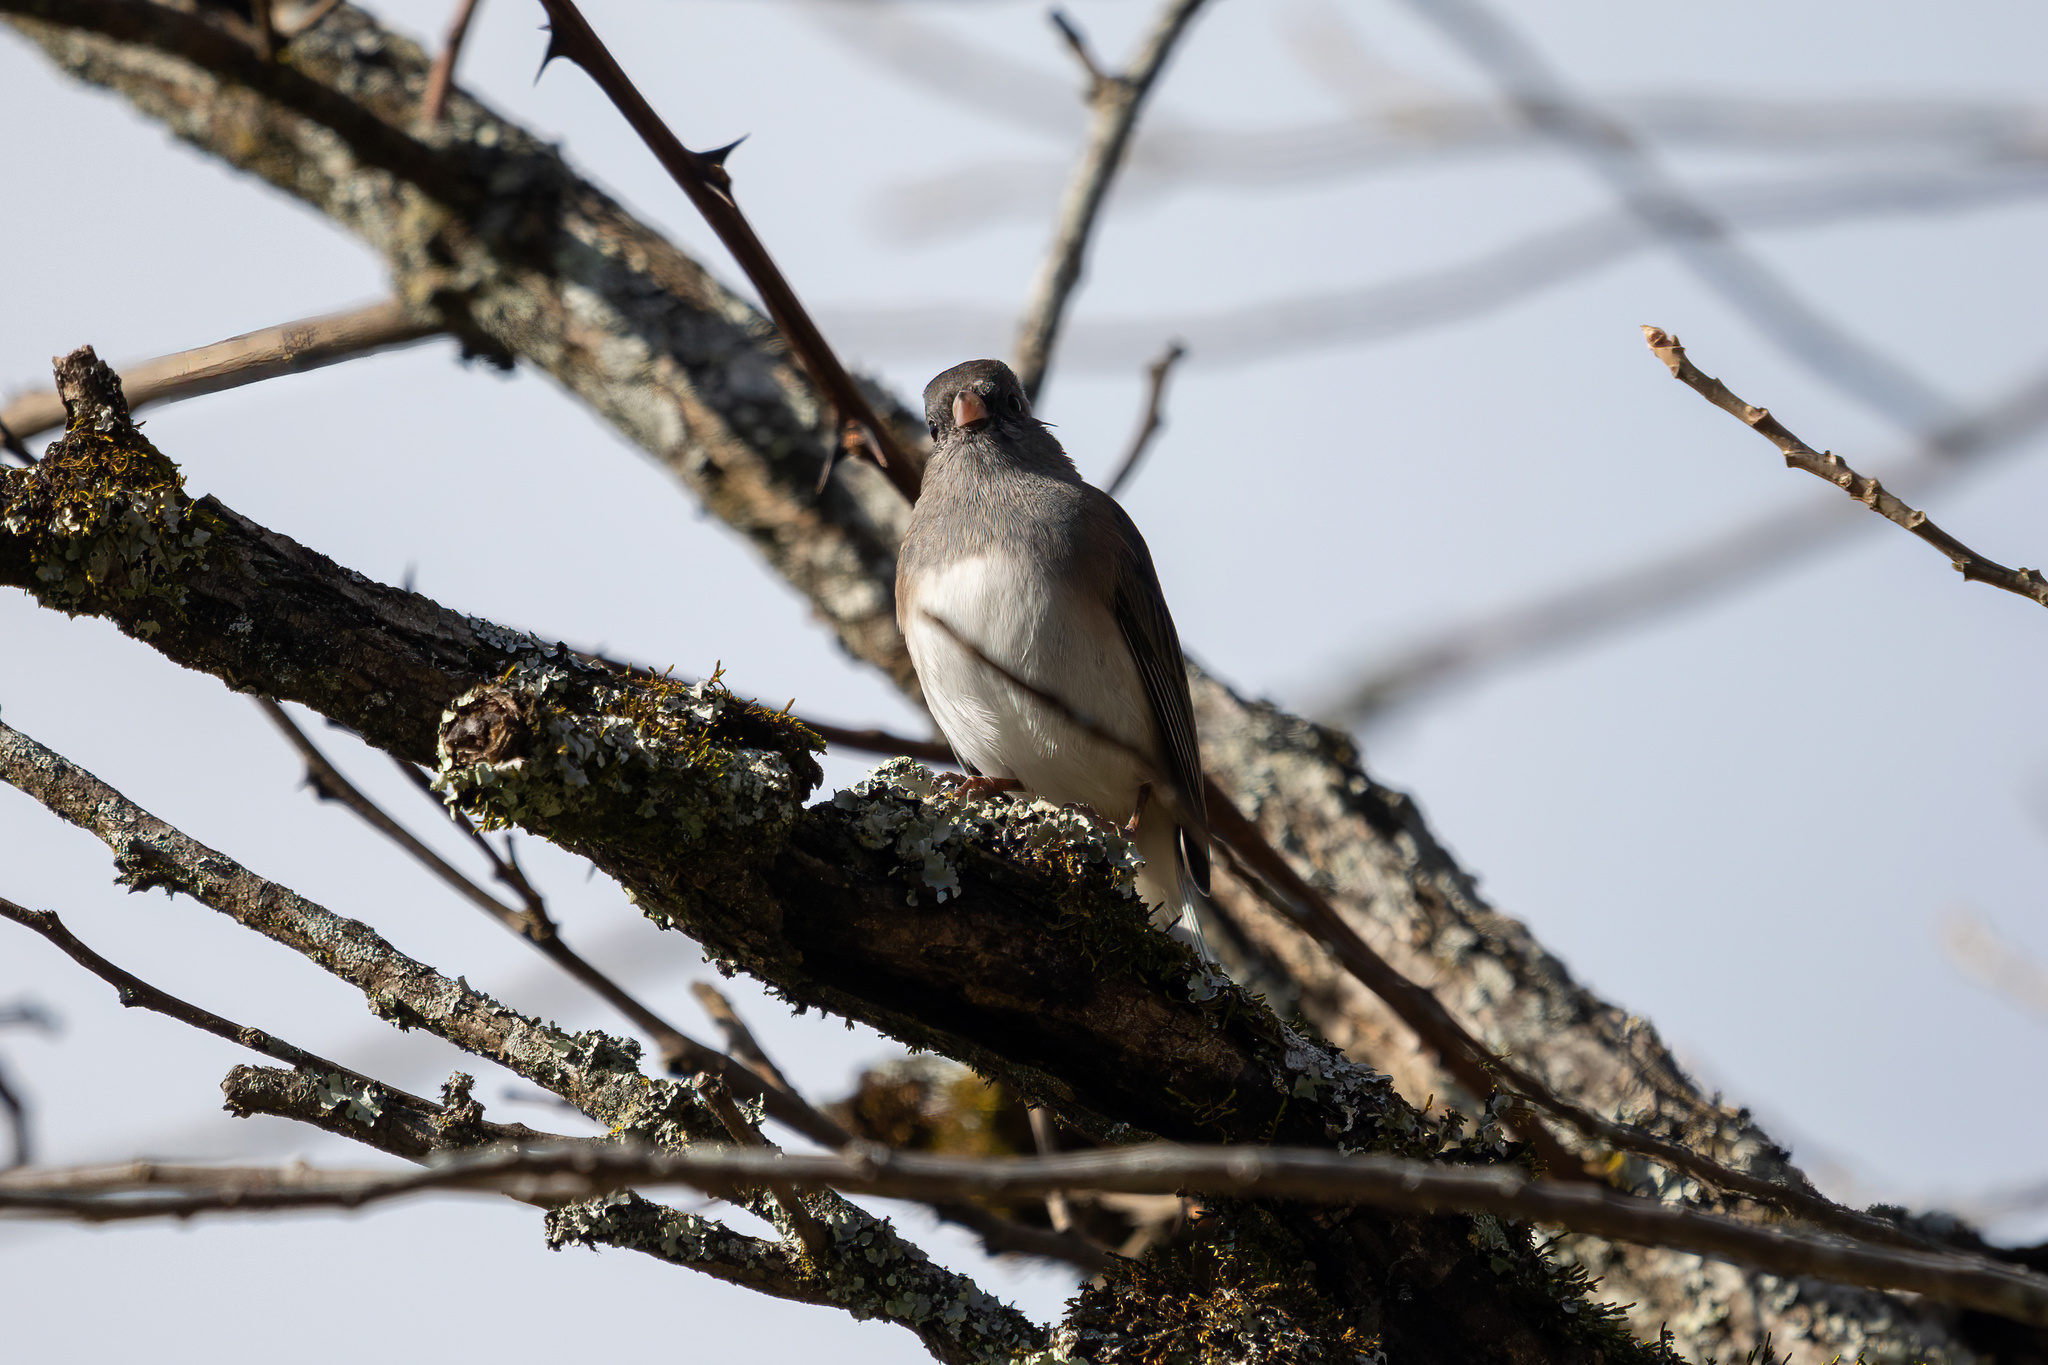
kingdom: Animalia
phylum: Chordata
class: Aves
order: Passeriformes
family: Passerellidae
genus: Junco
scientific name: Junco hyemalis
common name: Dark-eyed junco
